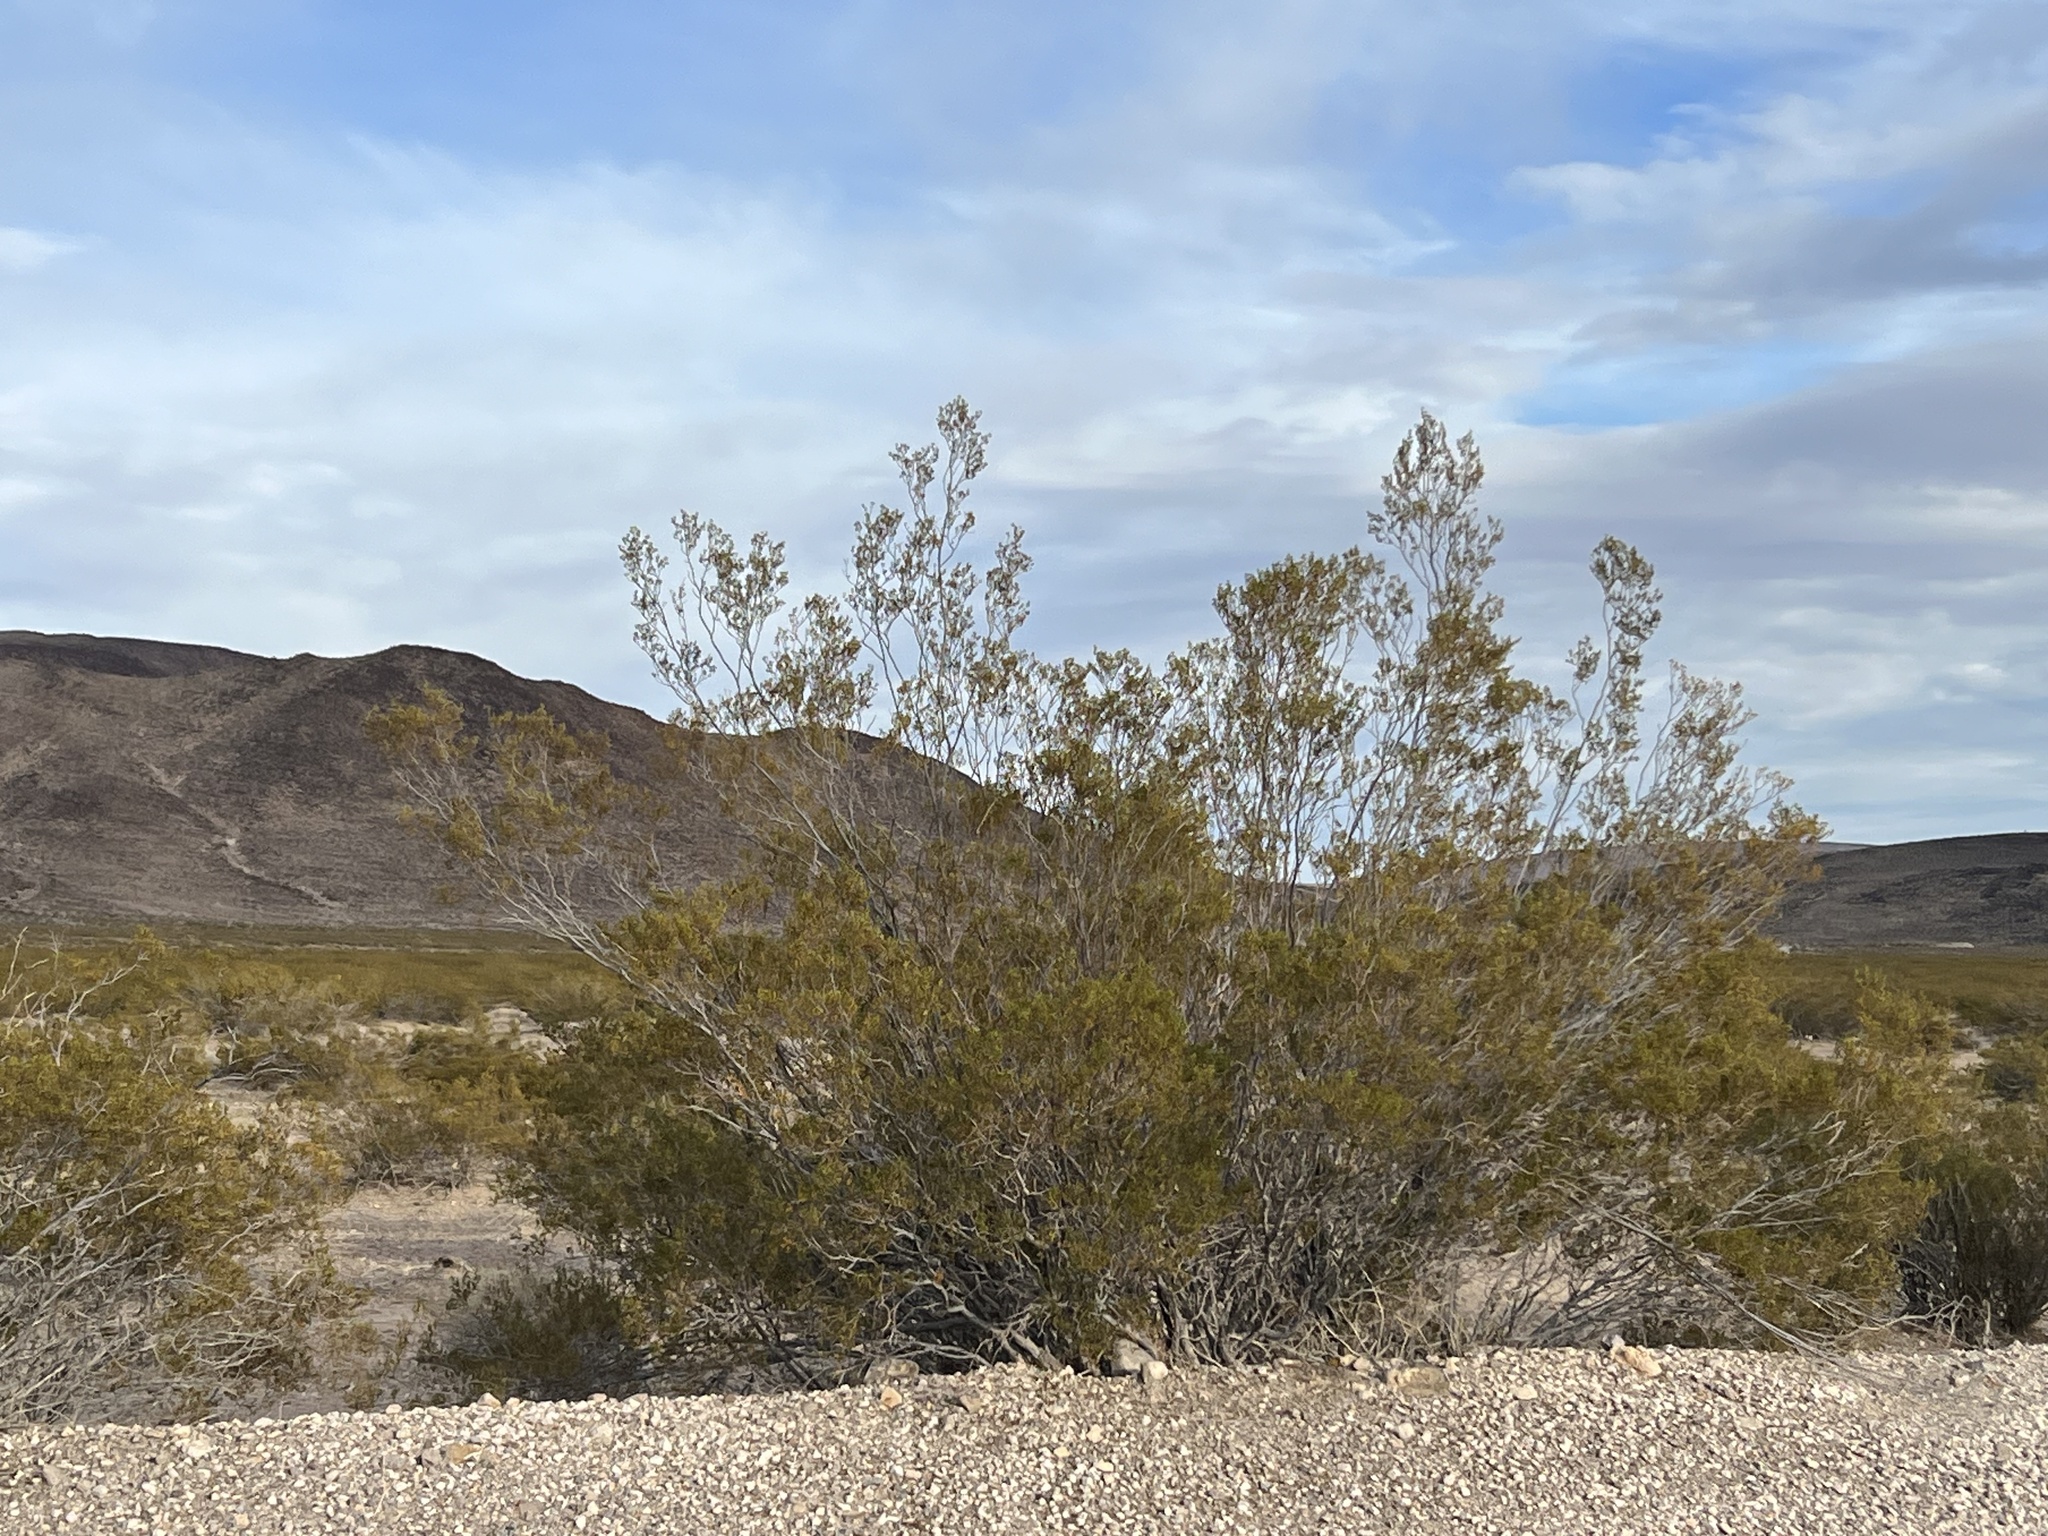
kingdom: Plantae
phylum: Tracheophyta
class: Magnoliopsida
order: Zygophyllales
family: Zygophyllaceae
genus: Larrea
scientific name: Larrea tridentata
